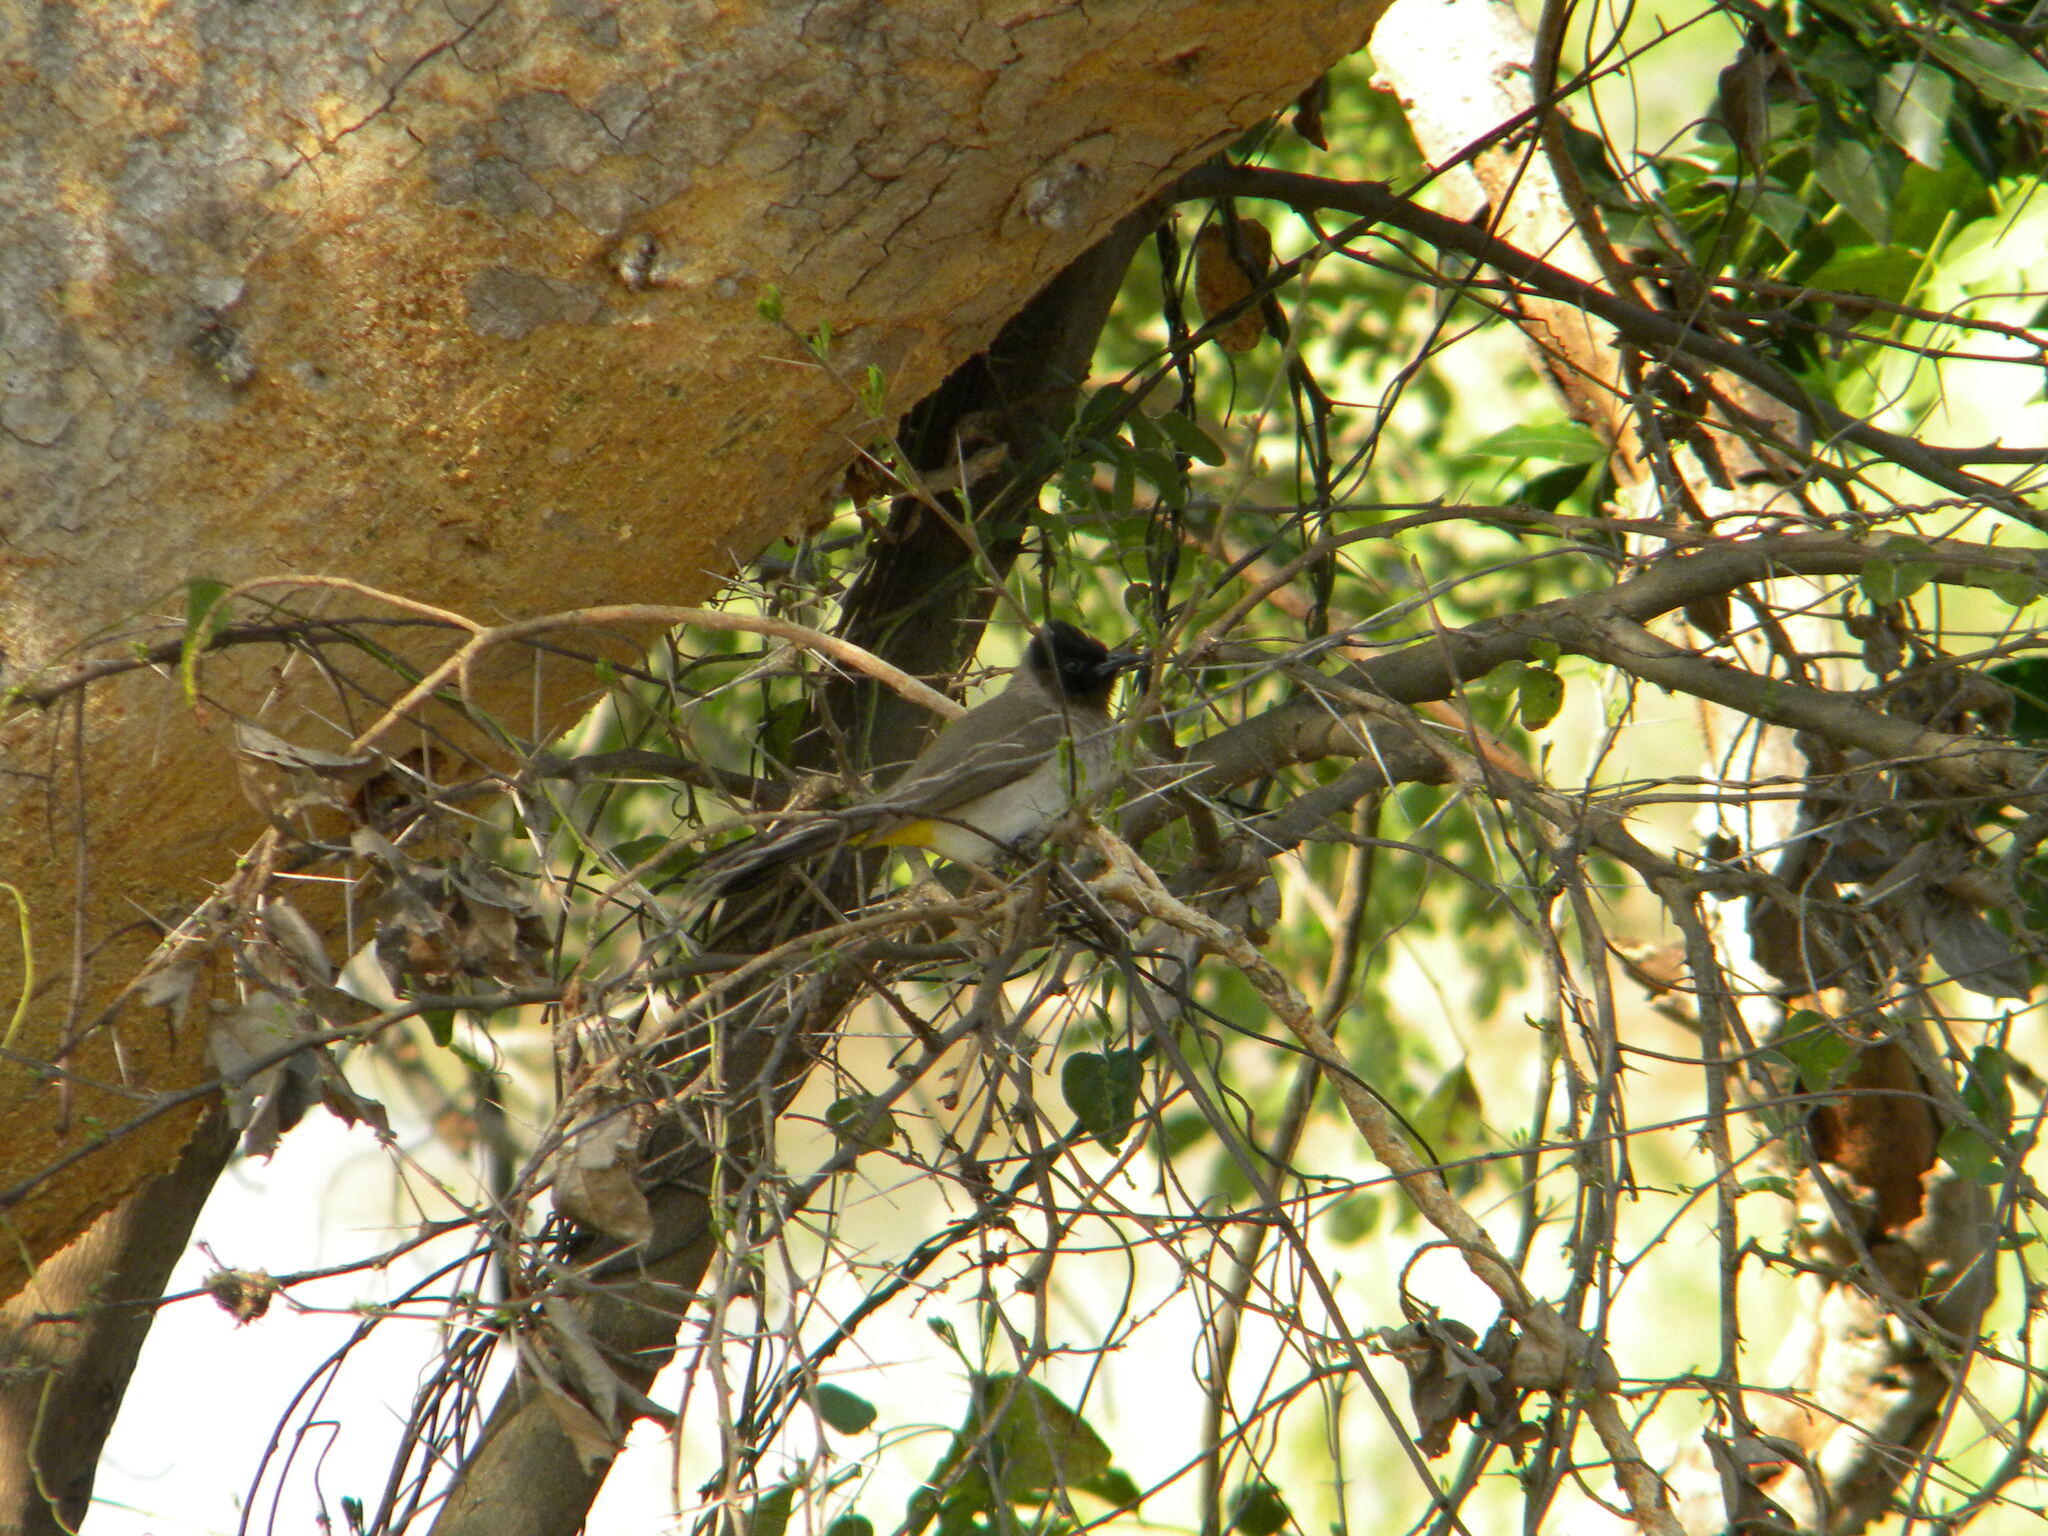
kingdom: Animalia
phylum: Chordata
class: Aves
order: Passeriformes
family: Pycnonotidae
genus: Pycnonotus
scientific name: Pycnonotus barbatus
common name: Common bulbul
